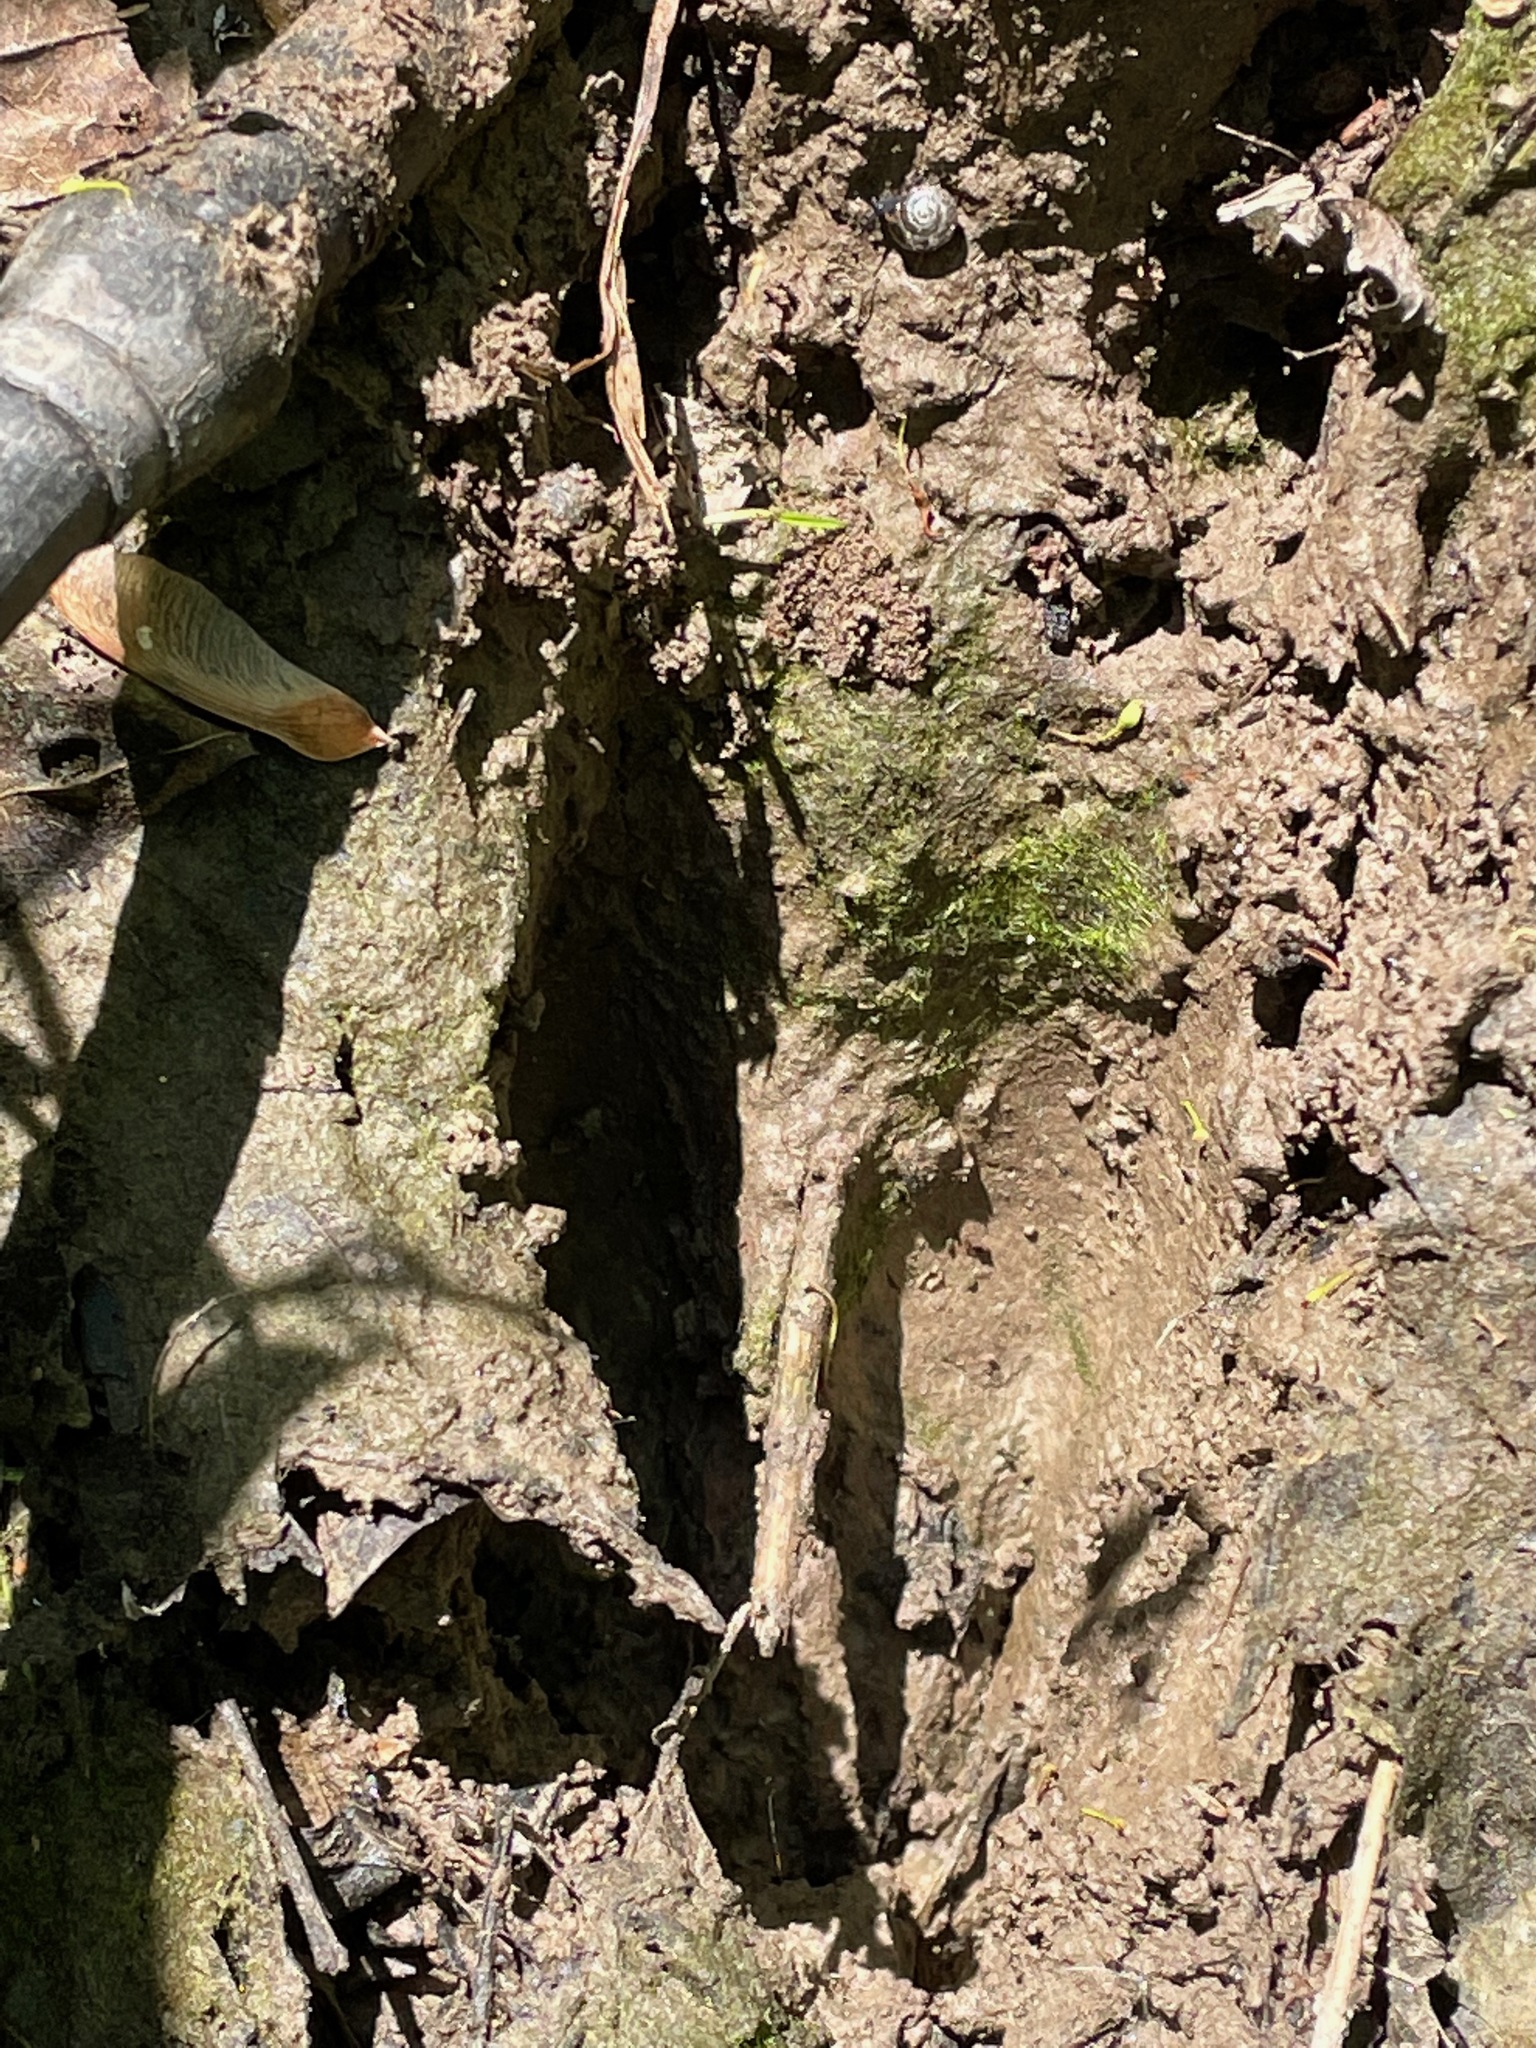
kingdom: Animalia
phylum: Chordata
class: Mammalia
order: Artiodactyla
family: Cervidae
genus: Odocoileus
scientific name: Odocoileus virginianus
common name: White-tailed deer
